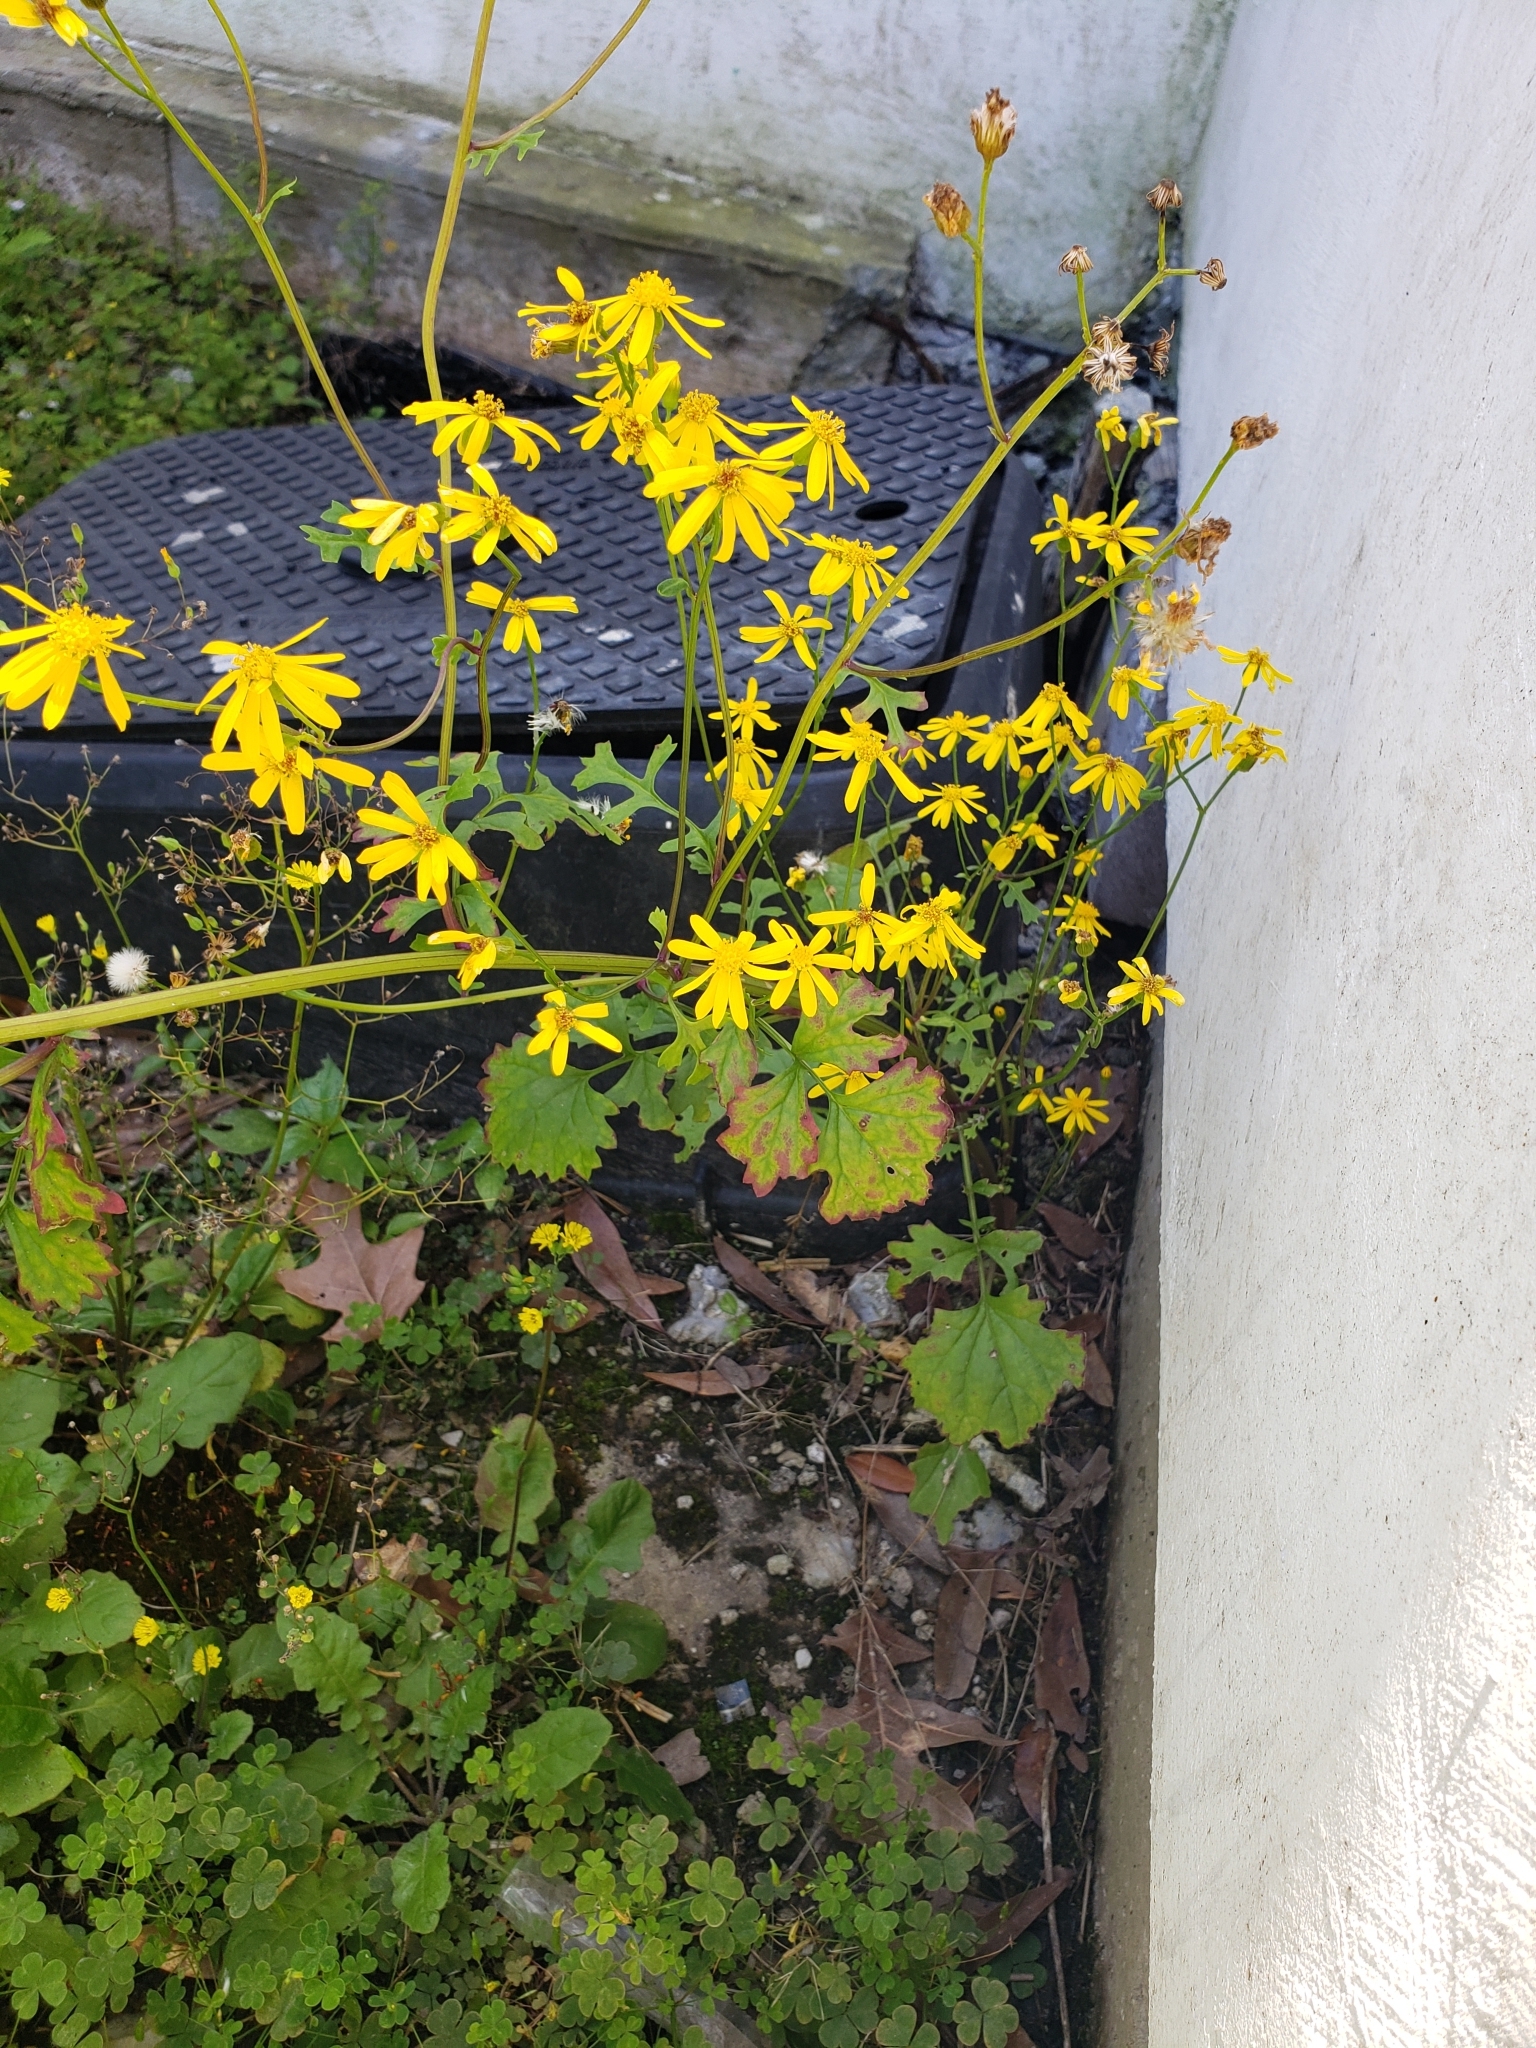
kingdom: Plantae
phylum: Tracheophyta
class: Magnoliopsida
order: Asterales
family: Asteraceae
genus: Packera
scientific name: Packera glabella
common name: Butterweed
